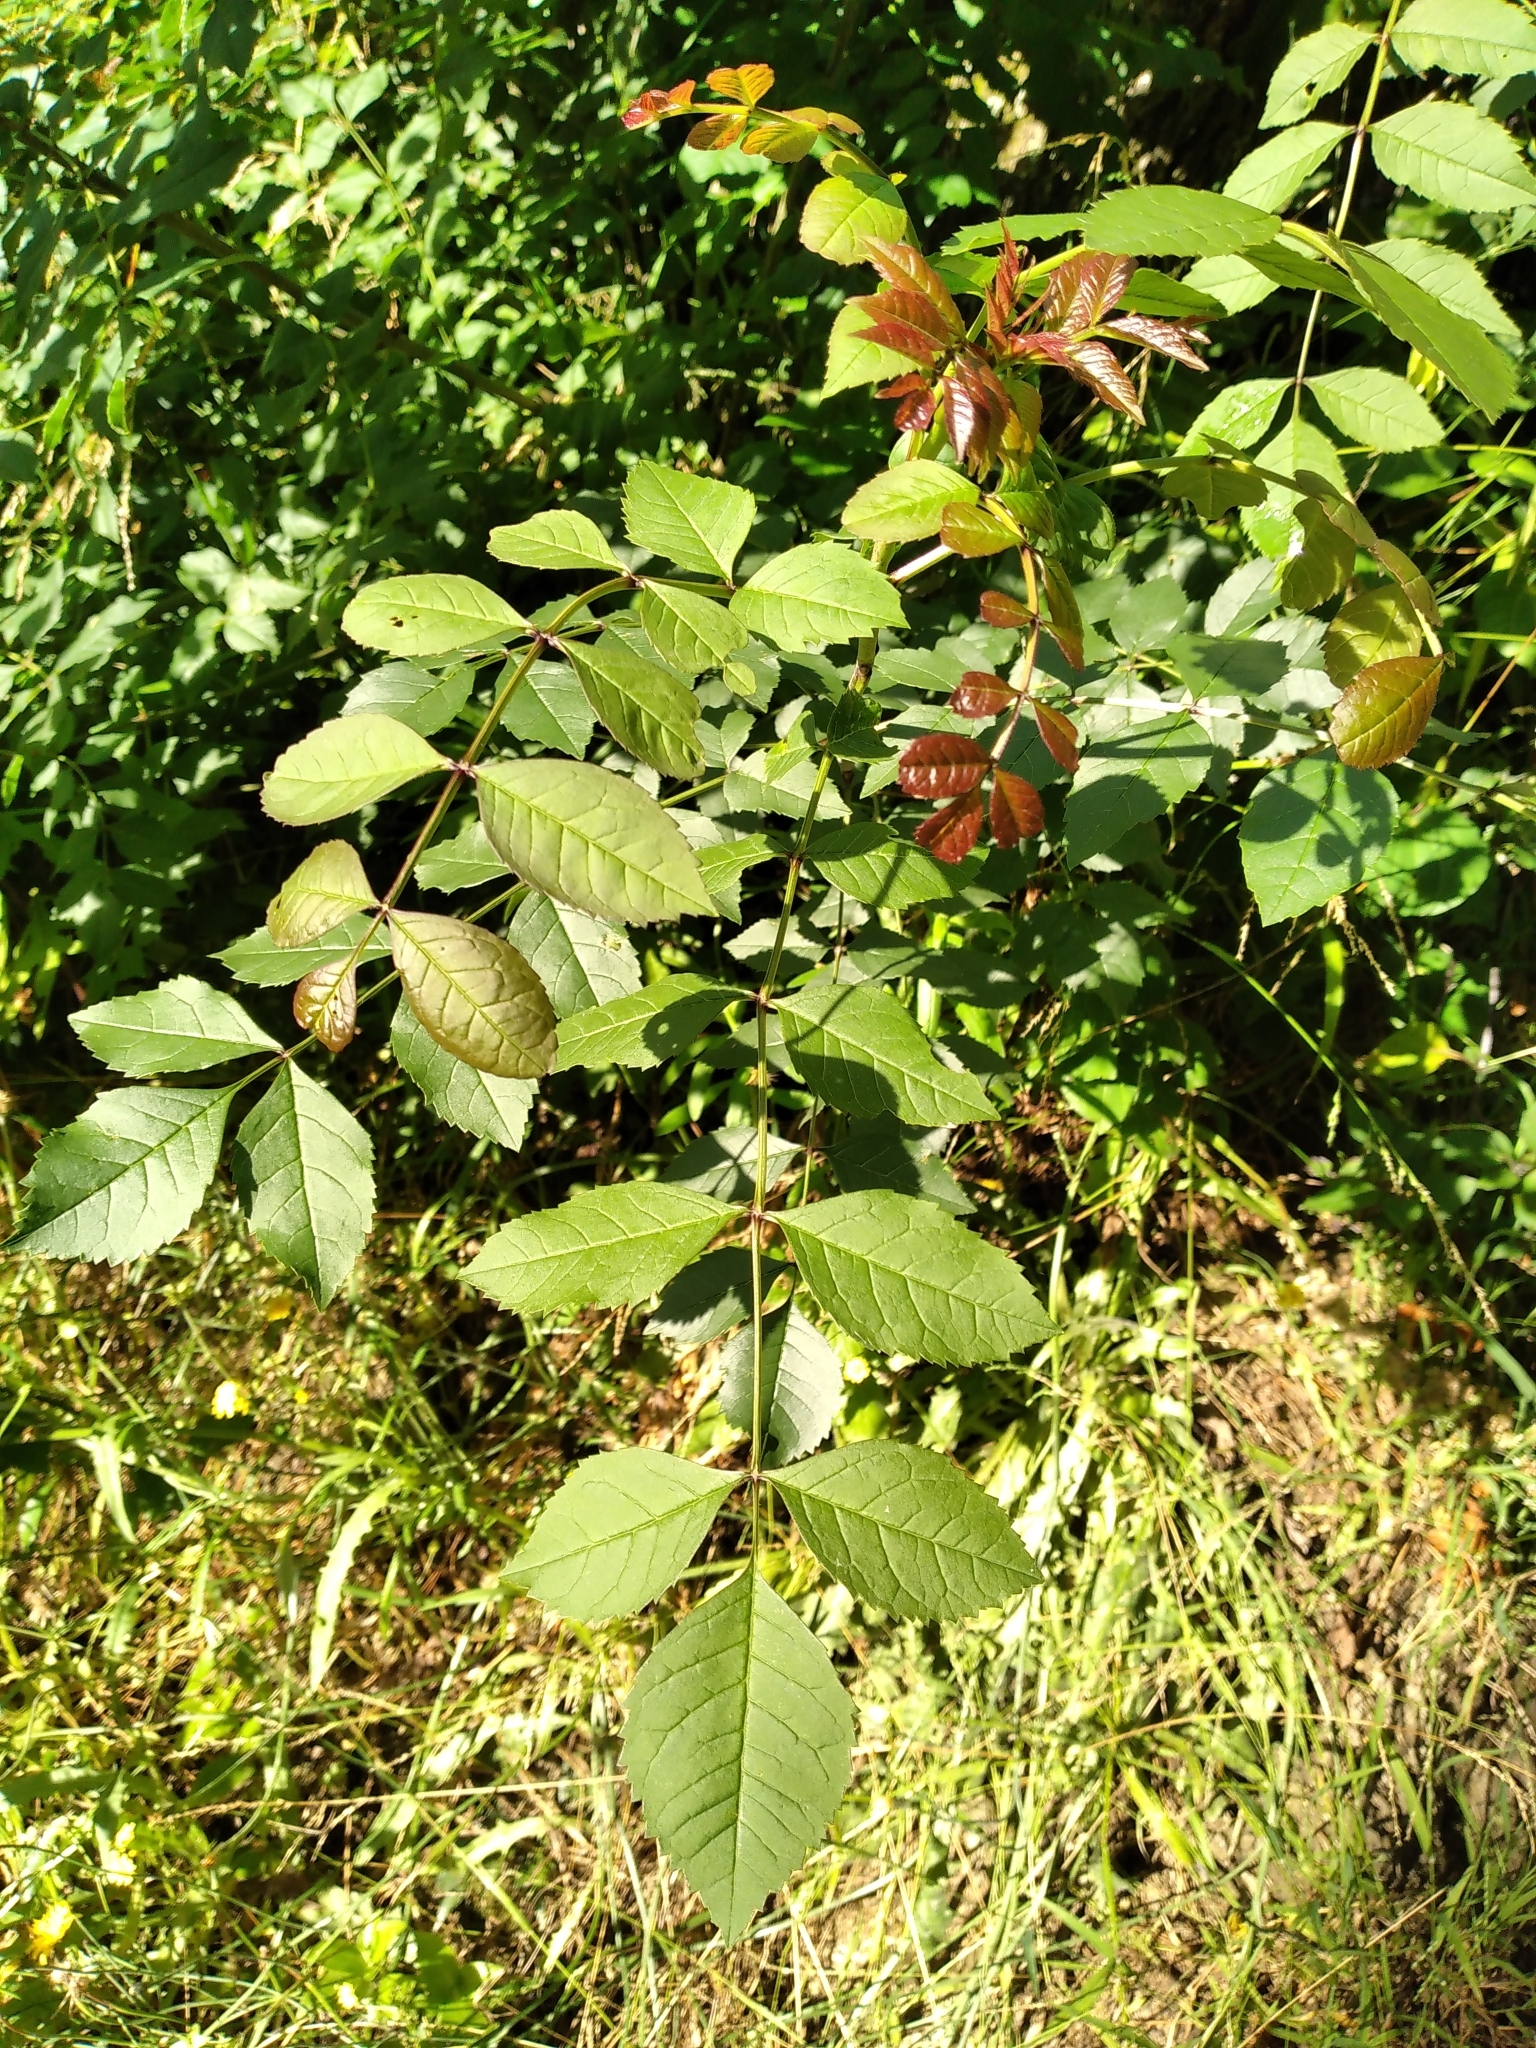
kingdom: Plantae
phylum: Tracheophyta
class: Magnoliopsida
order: Lamiales
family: Oleaceae
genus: Fraxinus
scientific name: Fraxinus excelsior
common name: European ash
